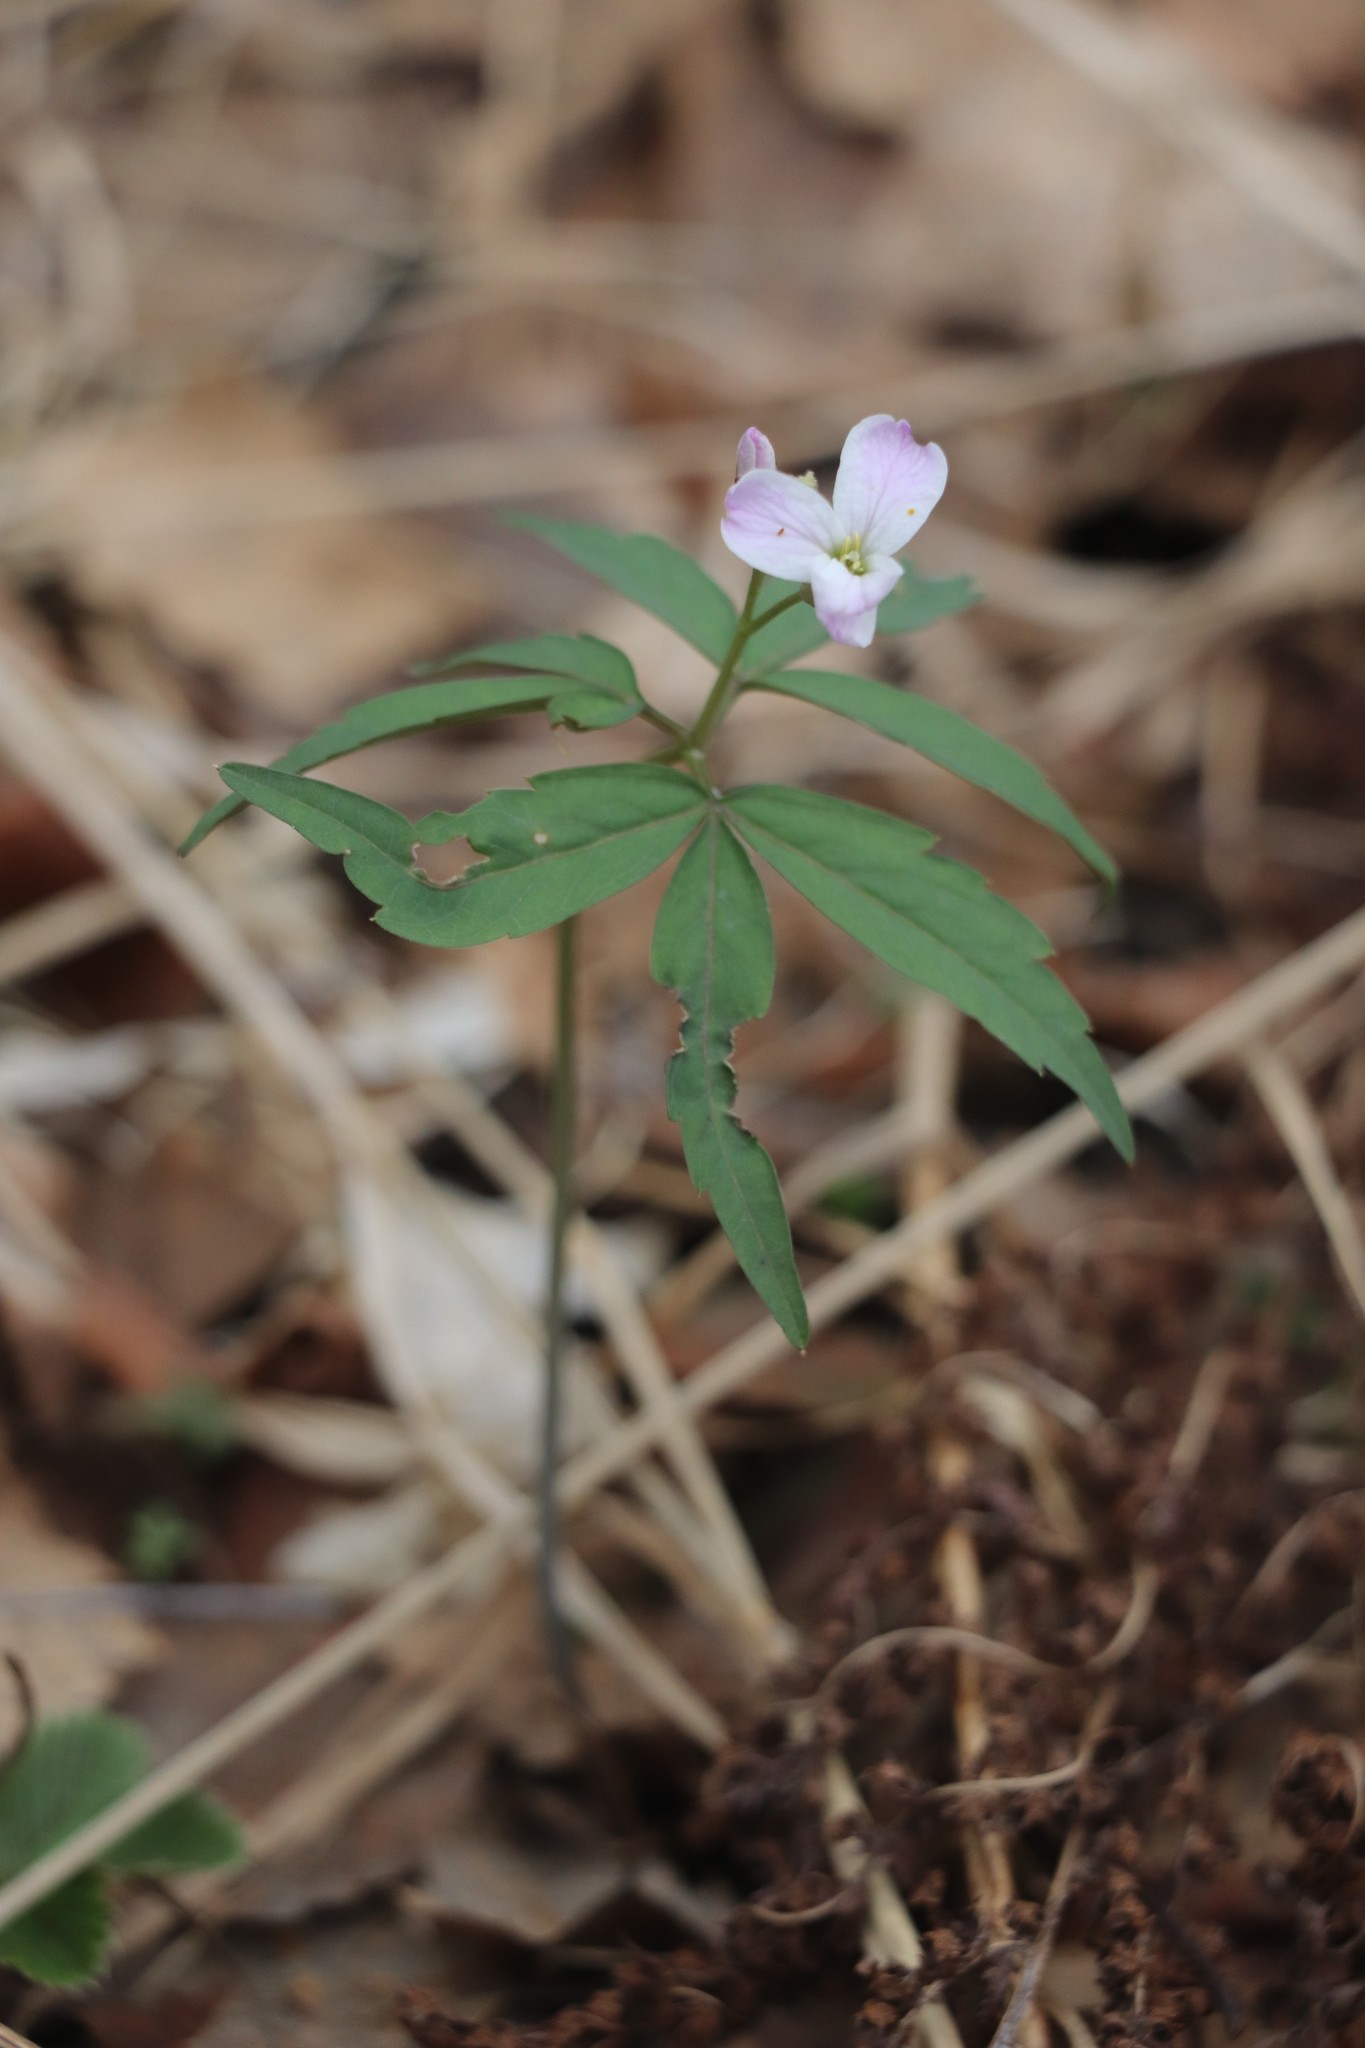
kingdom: Plantae
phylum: Tracheophyta
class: Magnoliopsida
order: Brassicales
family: Brassicaceae
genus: Cardamine
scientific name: Cardamine altaica
